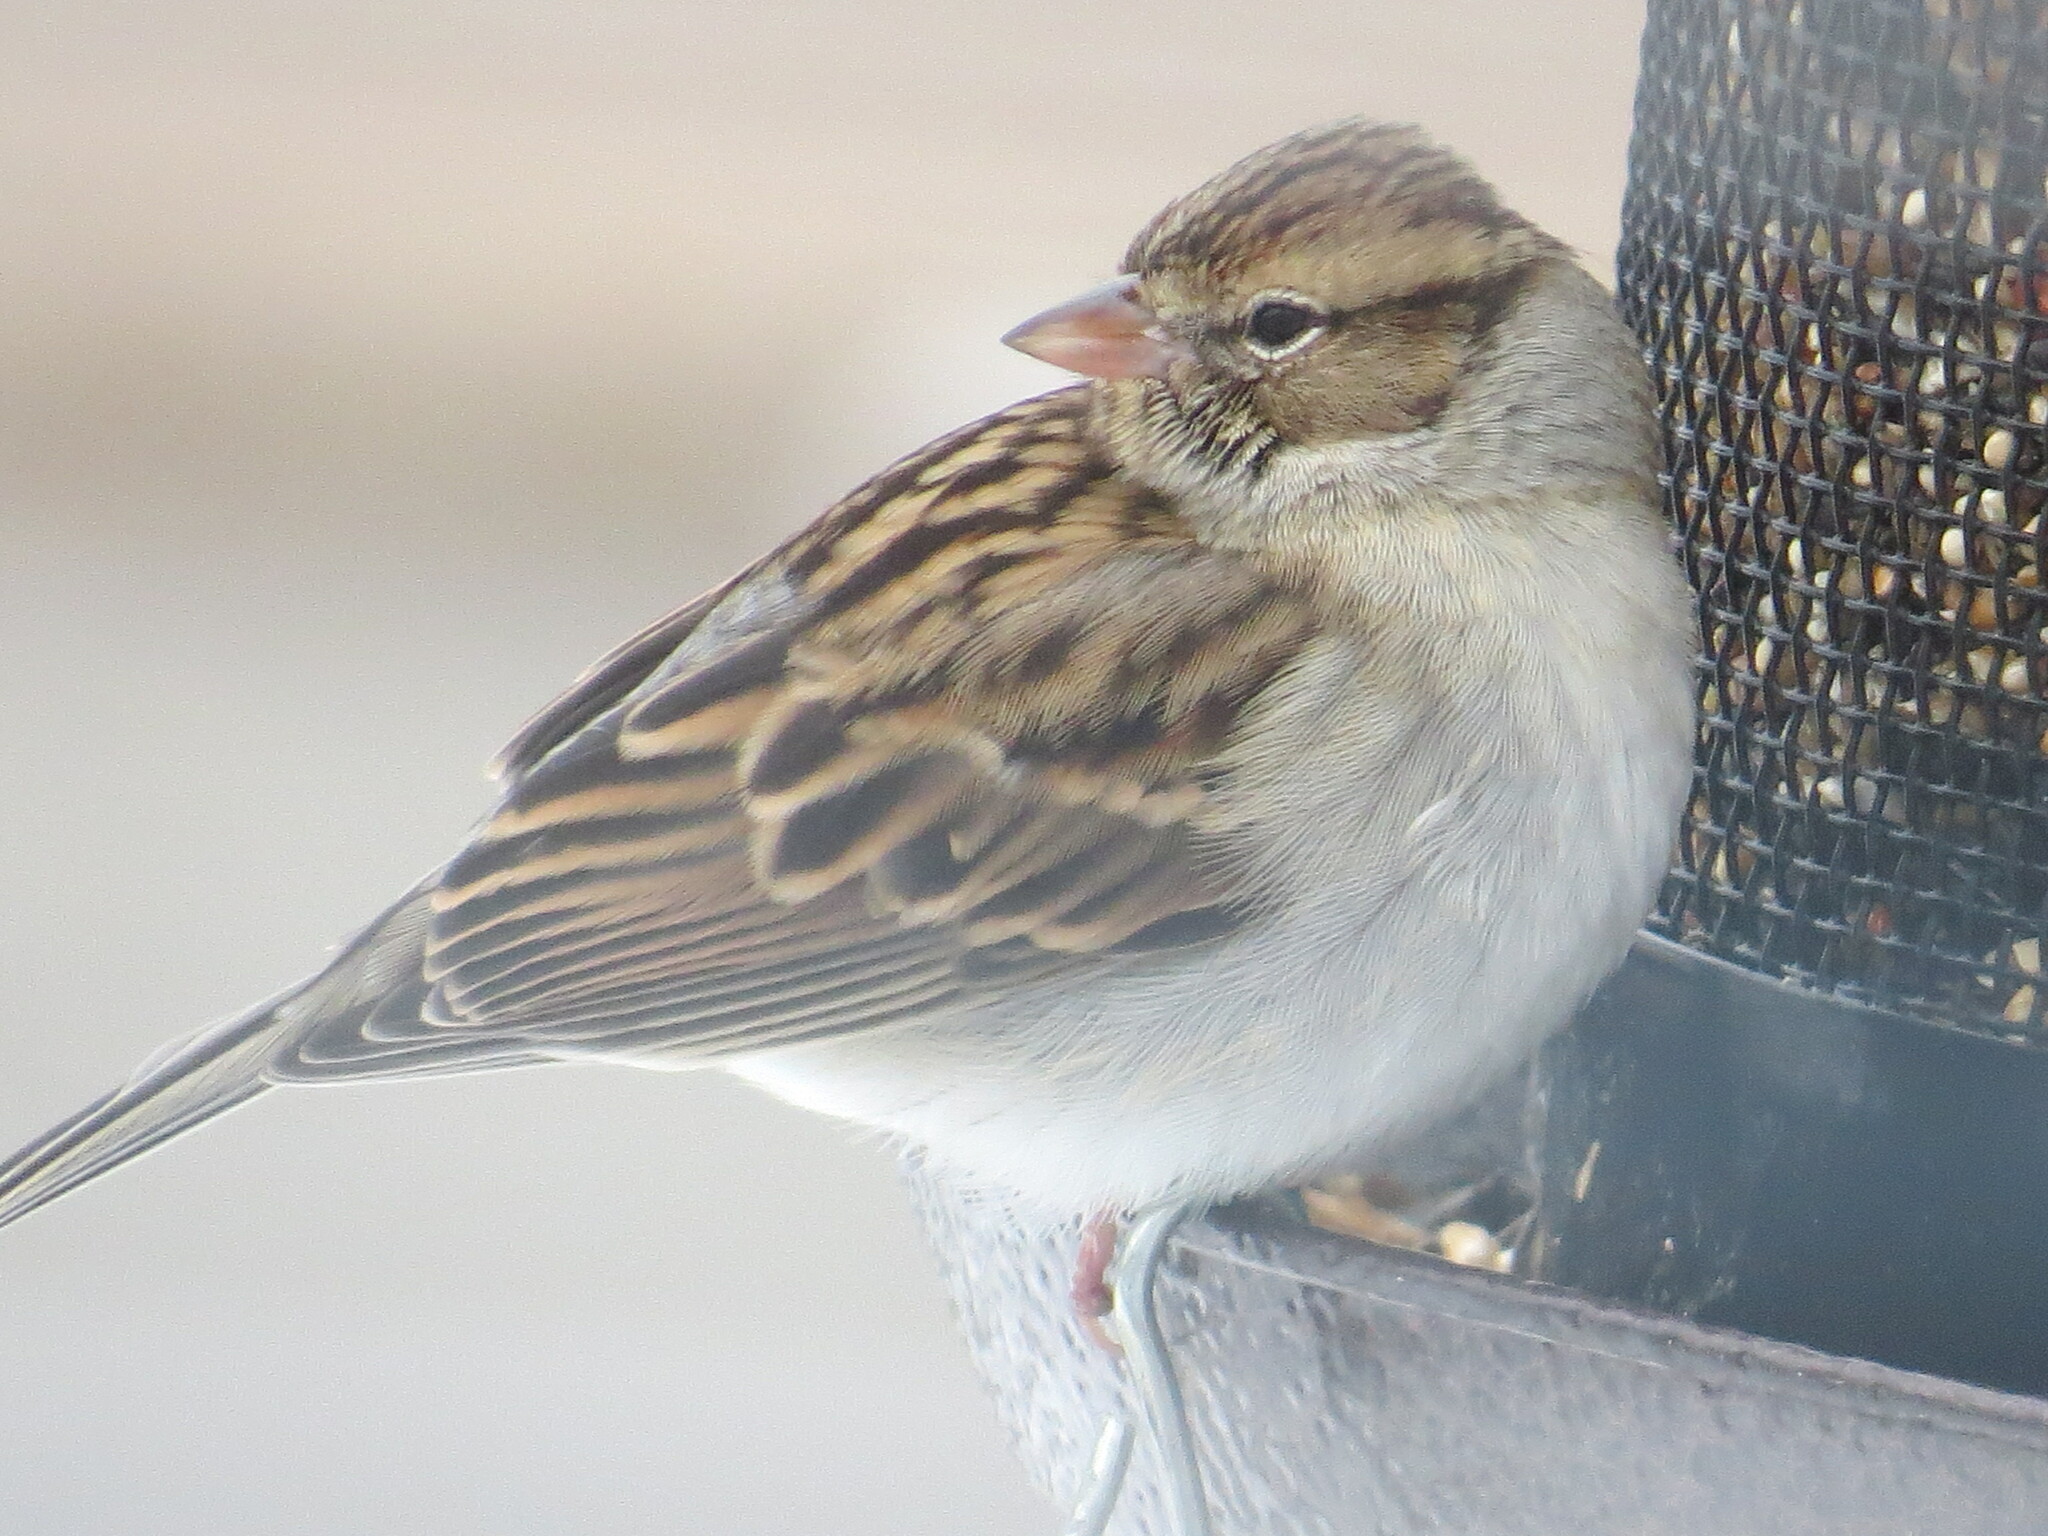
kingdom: Animalia
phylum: Chordata
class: Aves
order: Passeriformes
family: Passerellidae
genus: Spizella
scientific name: Spizella passerina
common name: Chipping sparrow
